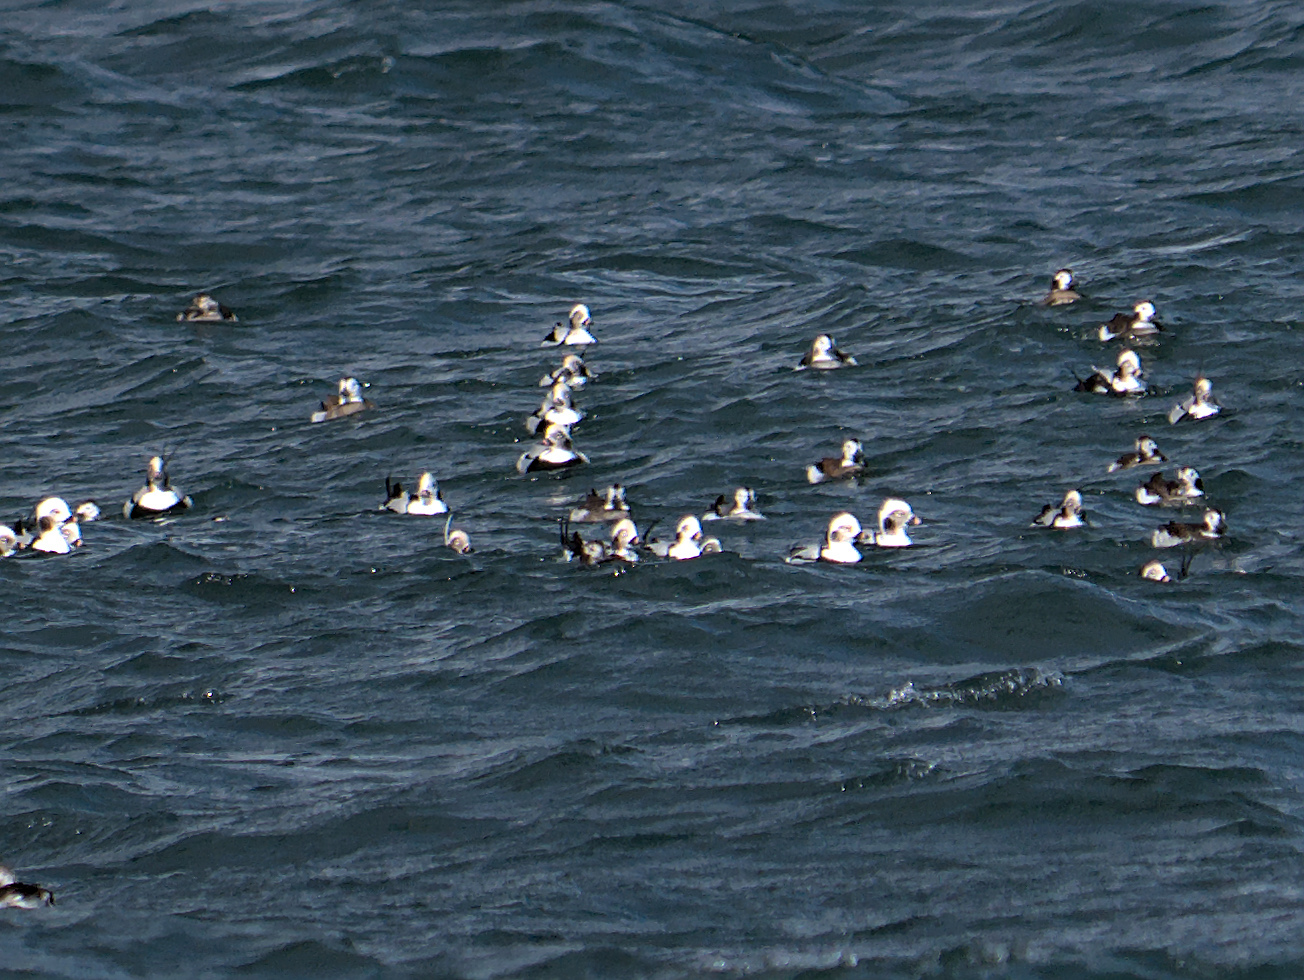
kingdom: Animalia
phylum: Chordata
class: Aves
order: Anseriformes
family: Anatidae
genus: Clangula
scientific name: Clangula hyemalis
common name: Long-tailed duck
